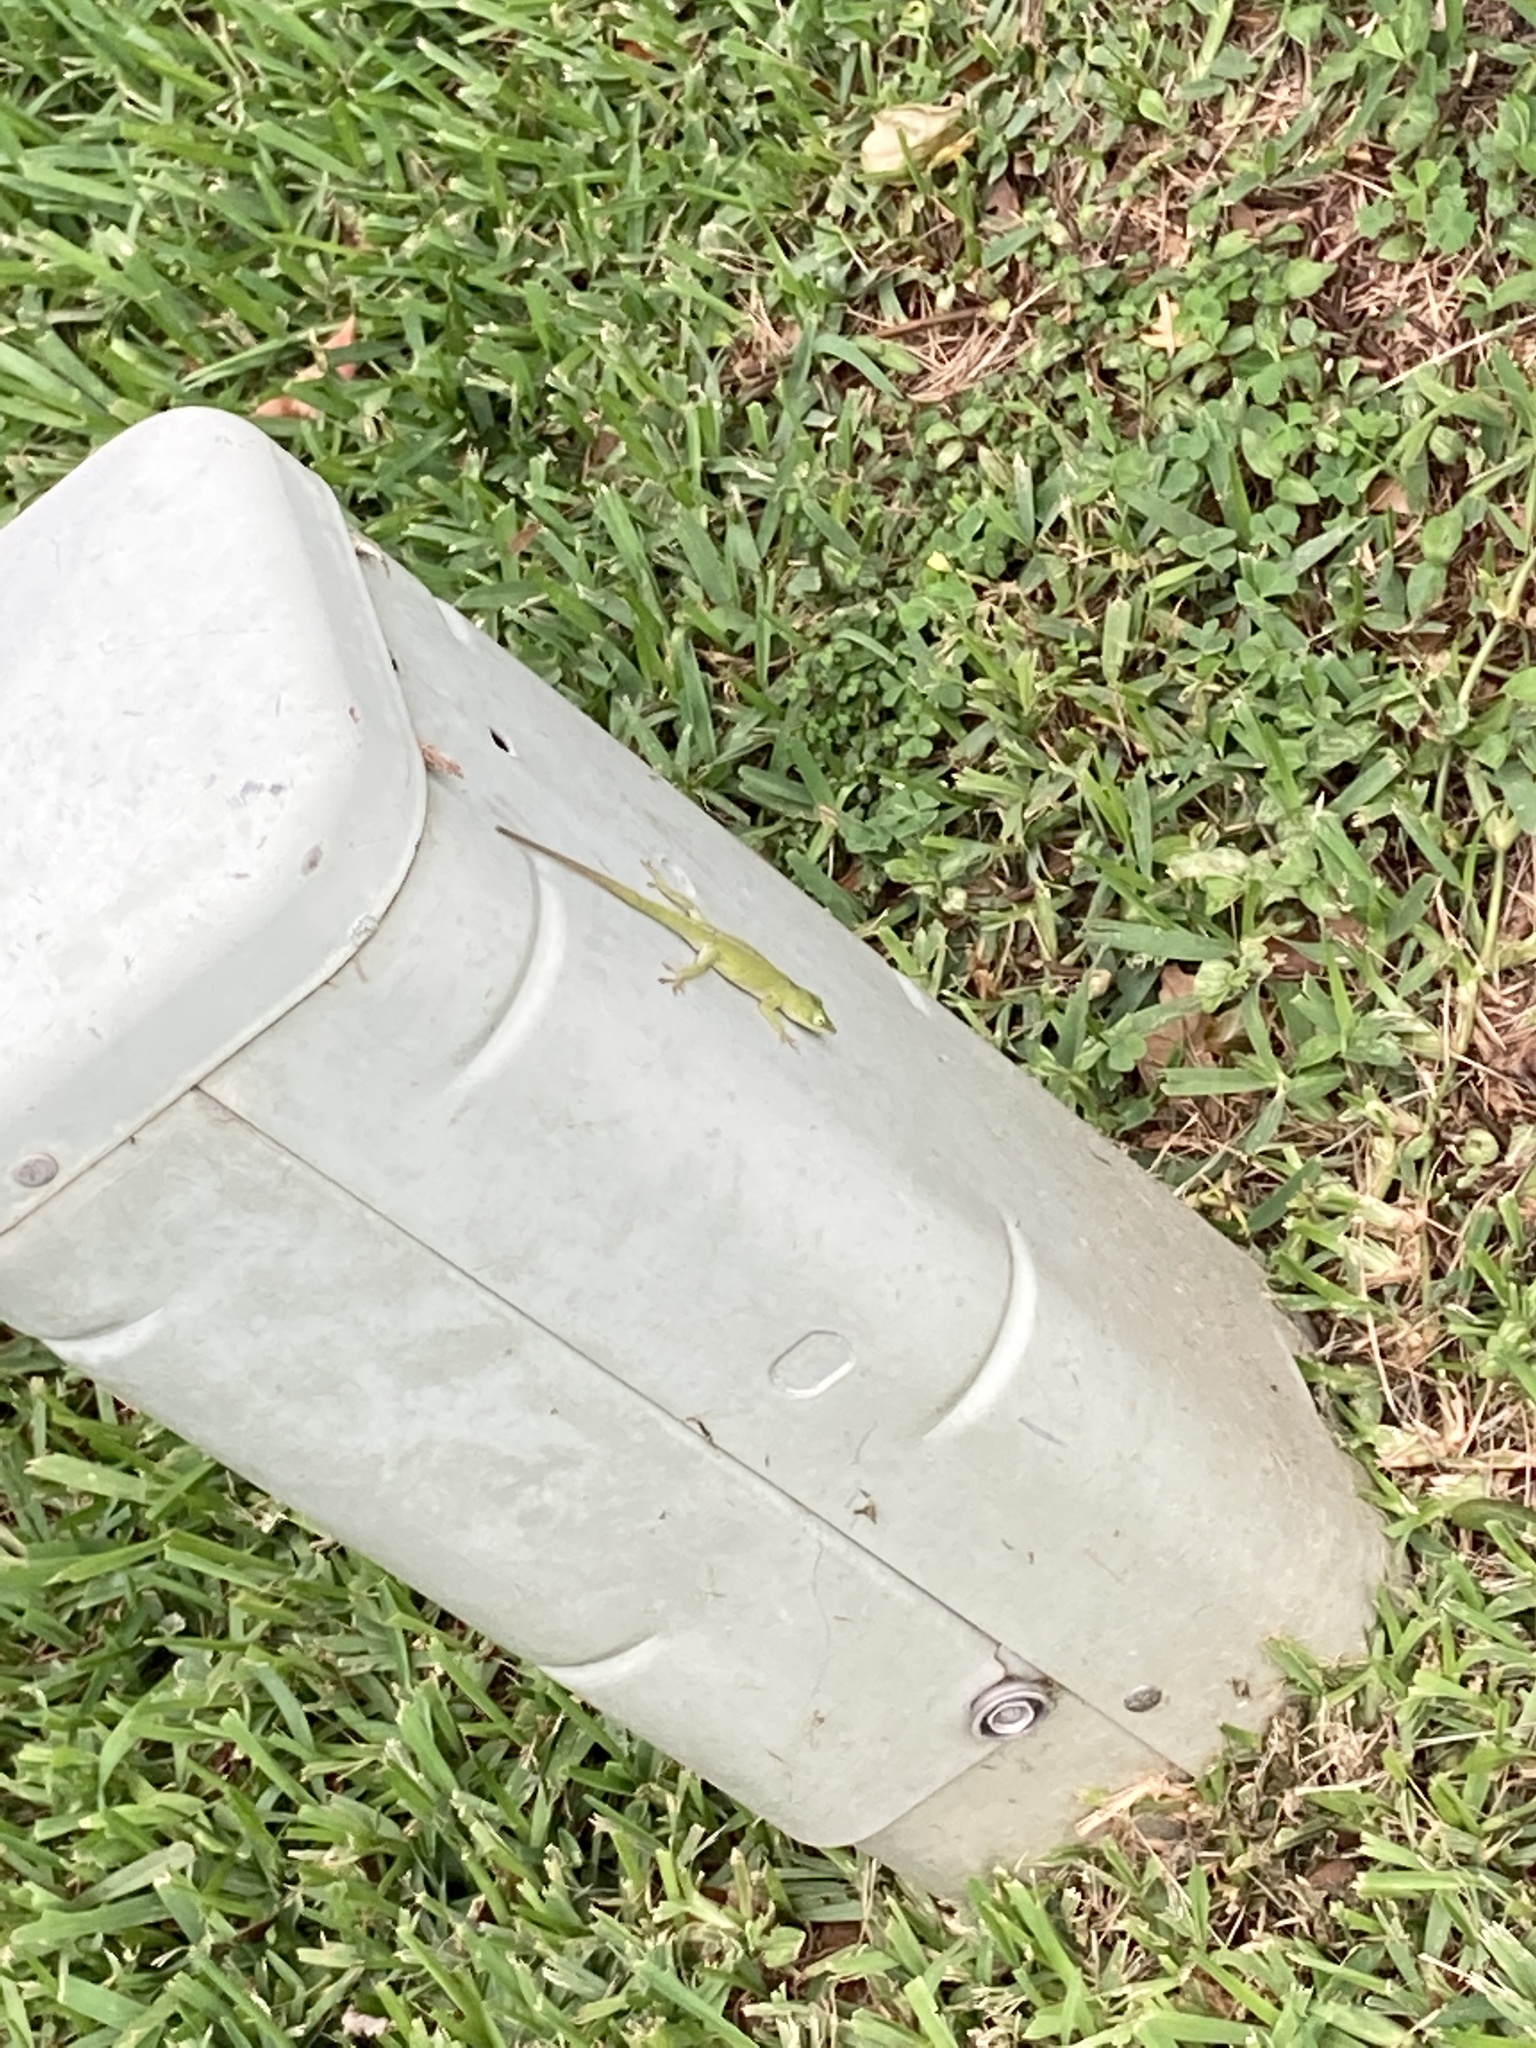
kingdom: Animalia
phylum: Chordata
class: Squamata
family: Dactyloidae
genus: Anolis
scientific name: Anolis carolinensis
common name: Green anole
